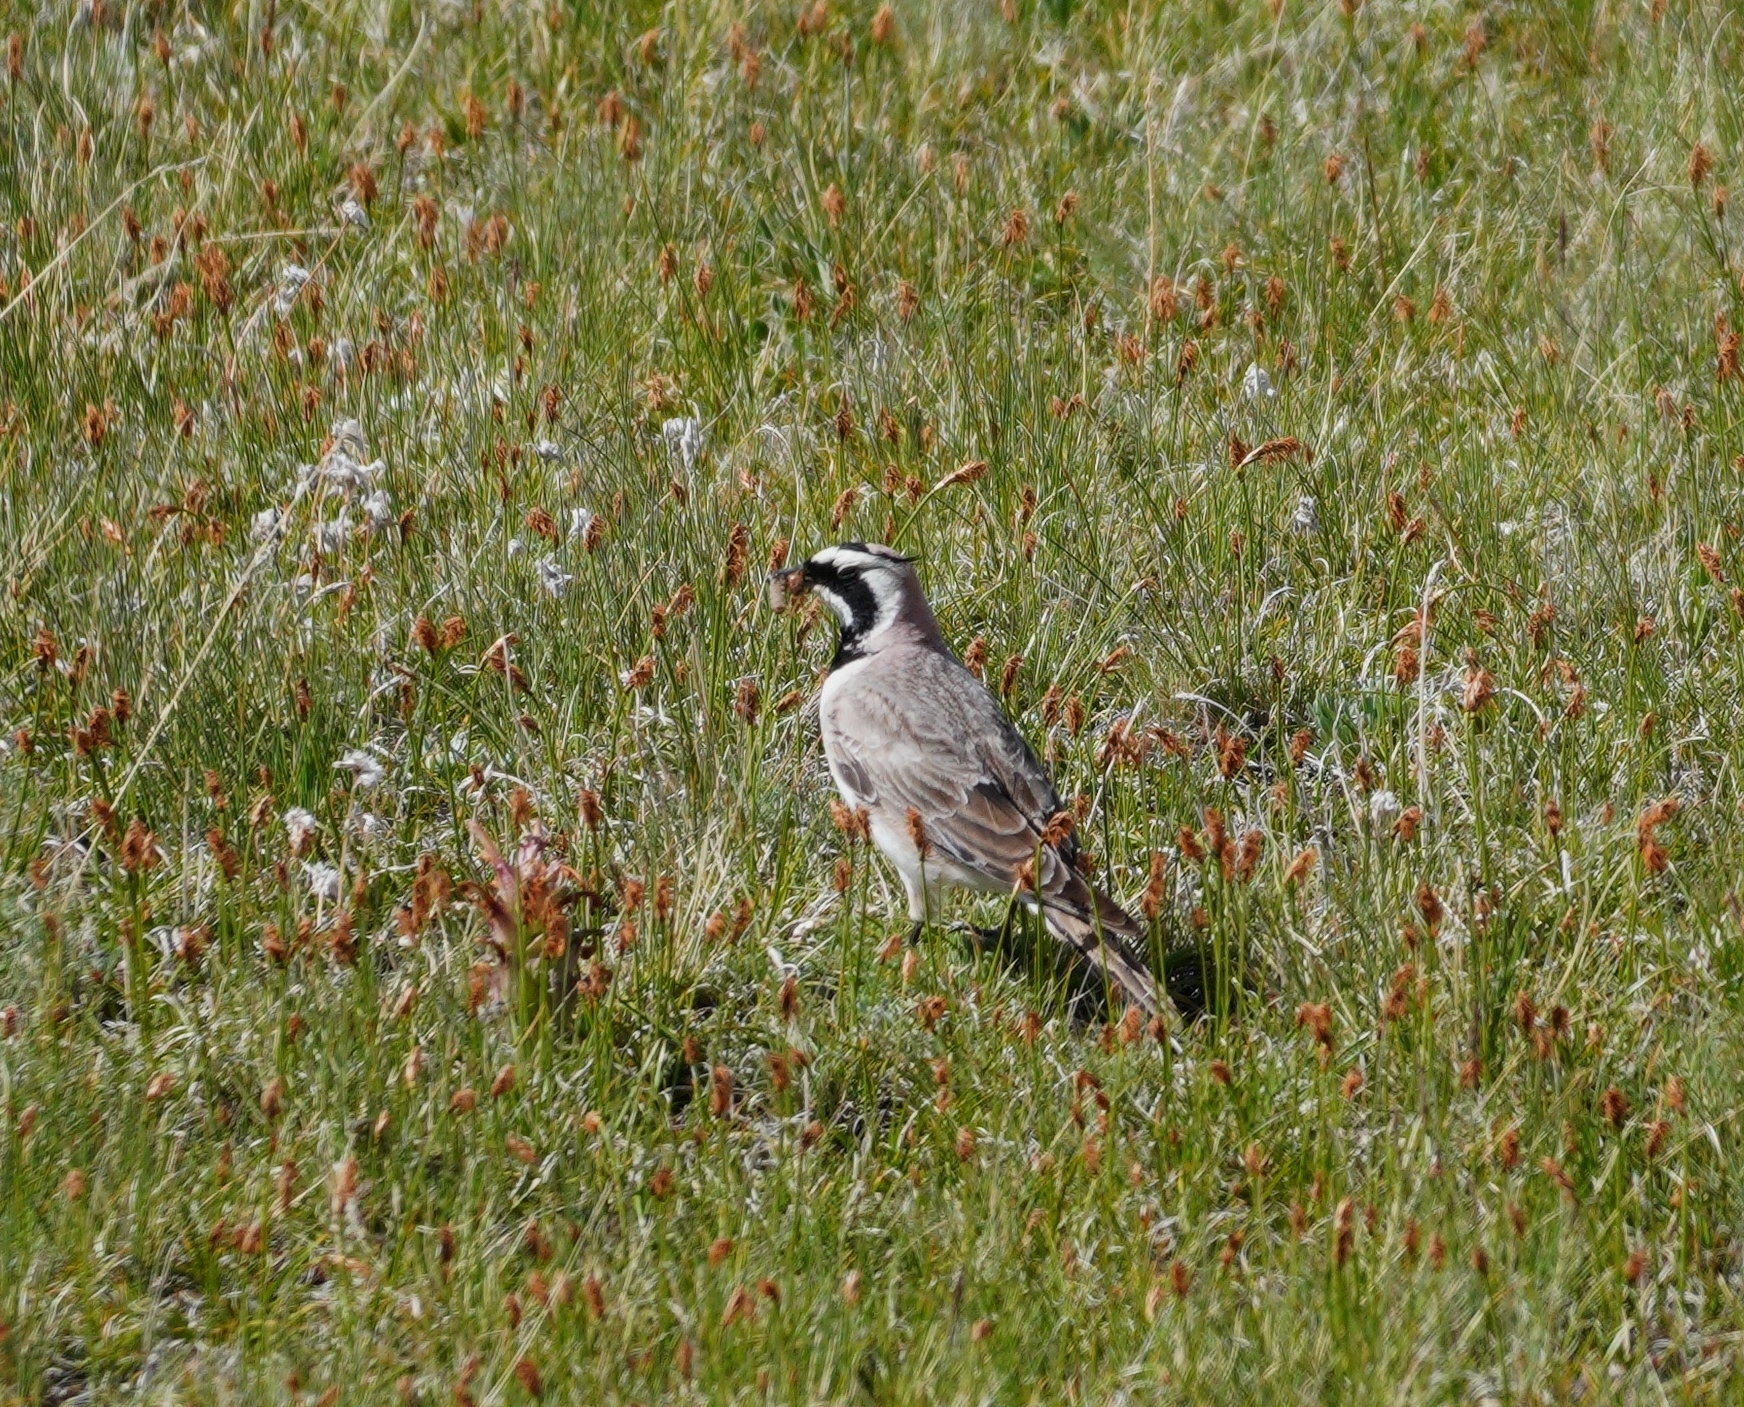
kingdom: Animalia
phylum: Chordata
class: Aves
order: Passeriformes
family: Alaudidae
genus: Eremophila
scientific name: Eremophila alpestris
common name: Horned lark
